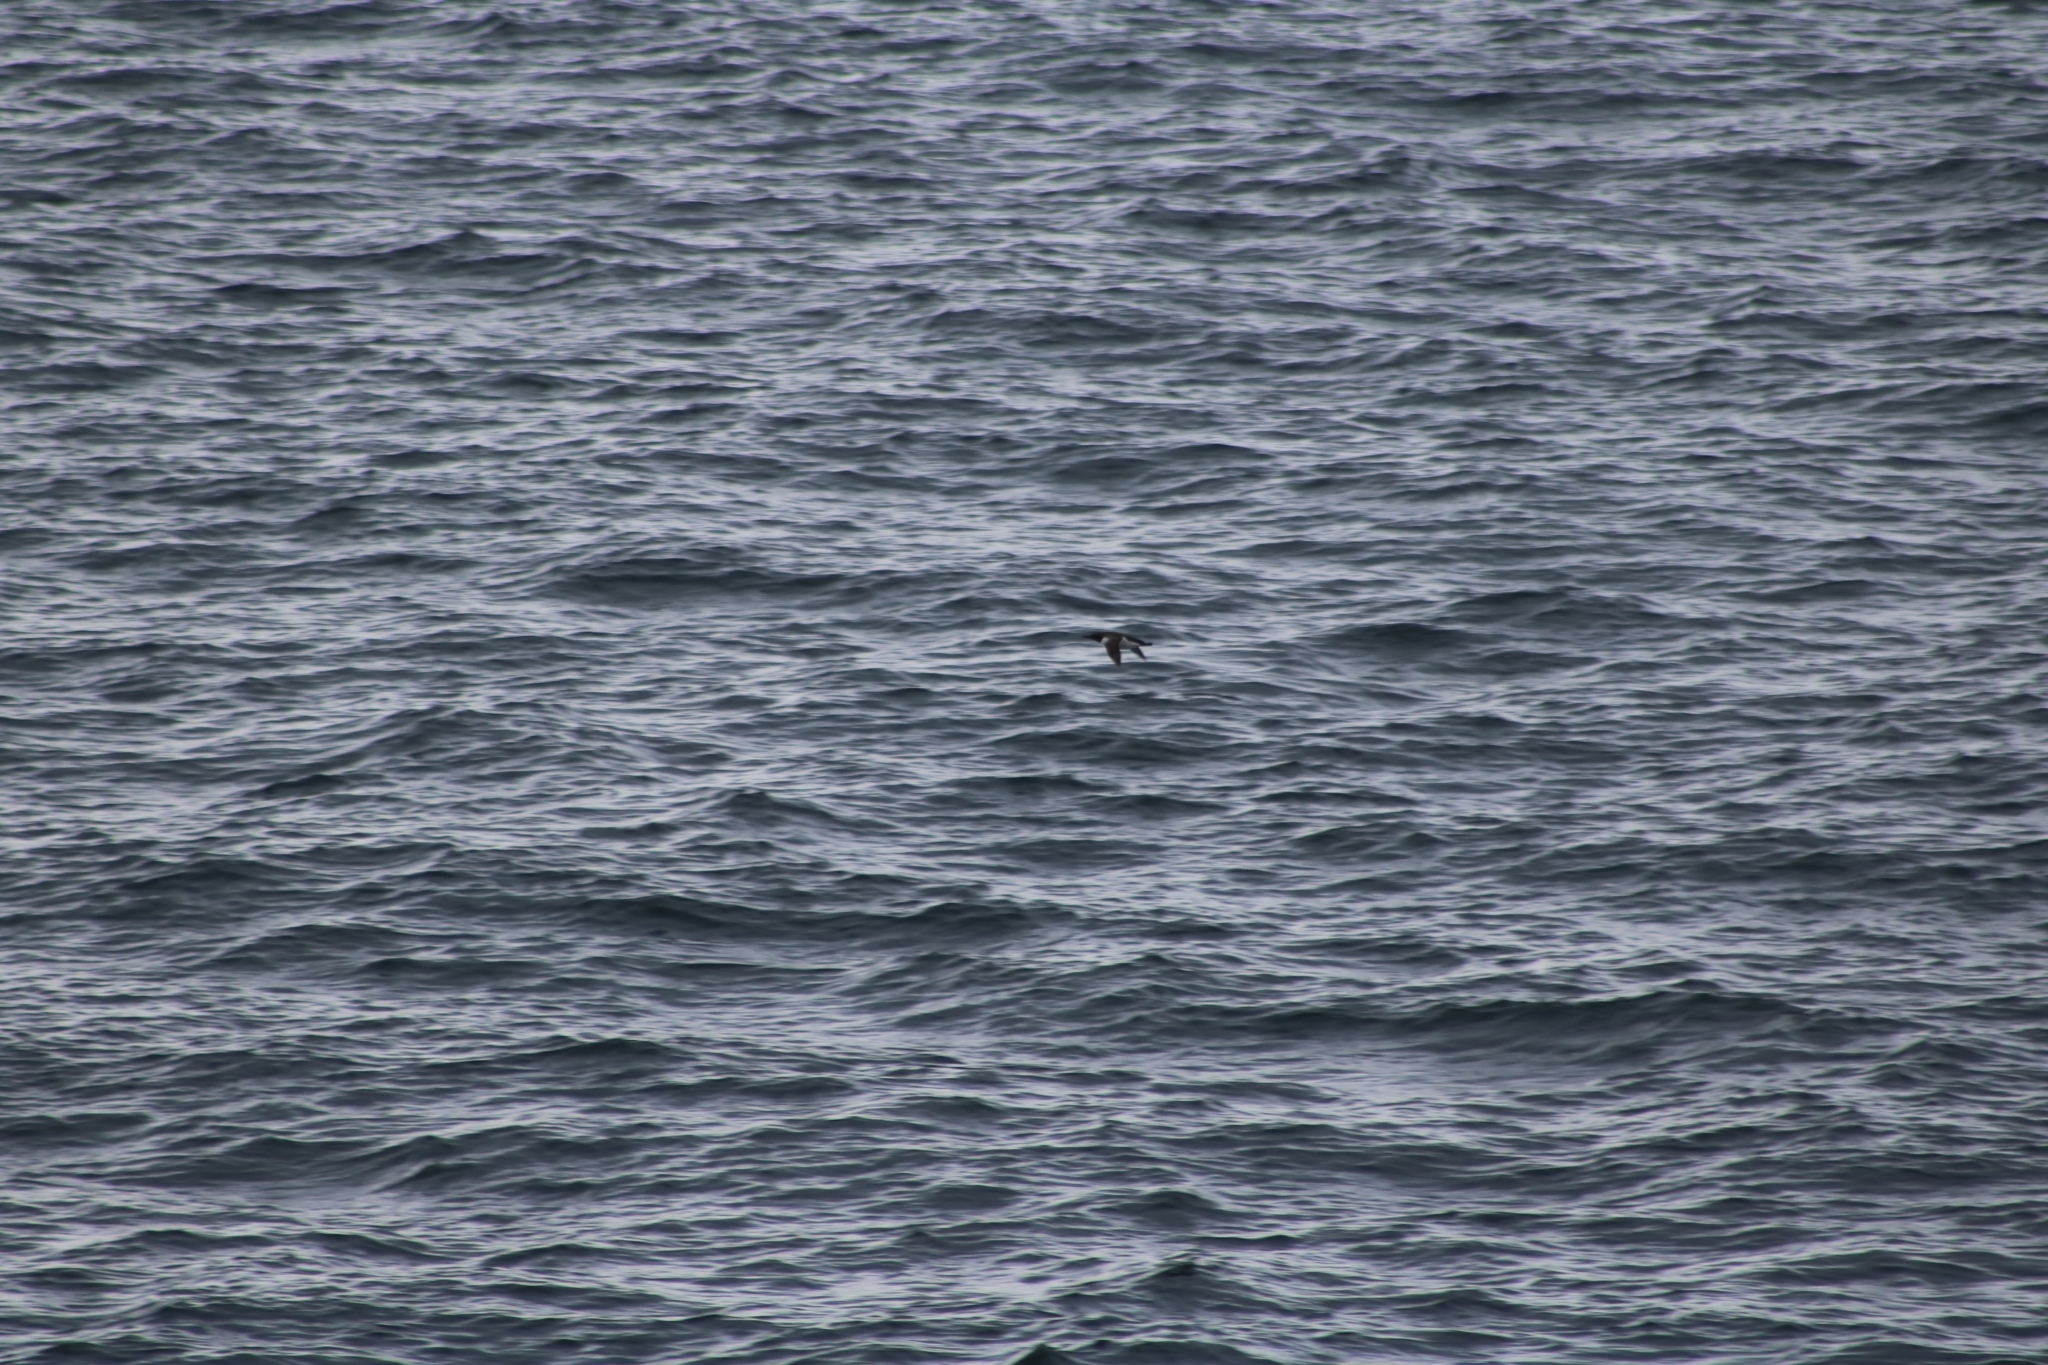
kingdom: Animalia
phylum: Chordata
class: Aves
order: Charadriiformes
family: Alcidae
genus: Uria
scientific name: Uria aalge
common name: Common murre
